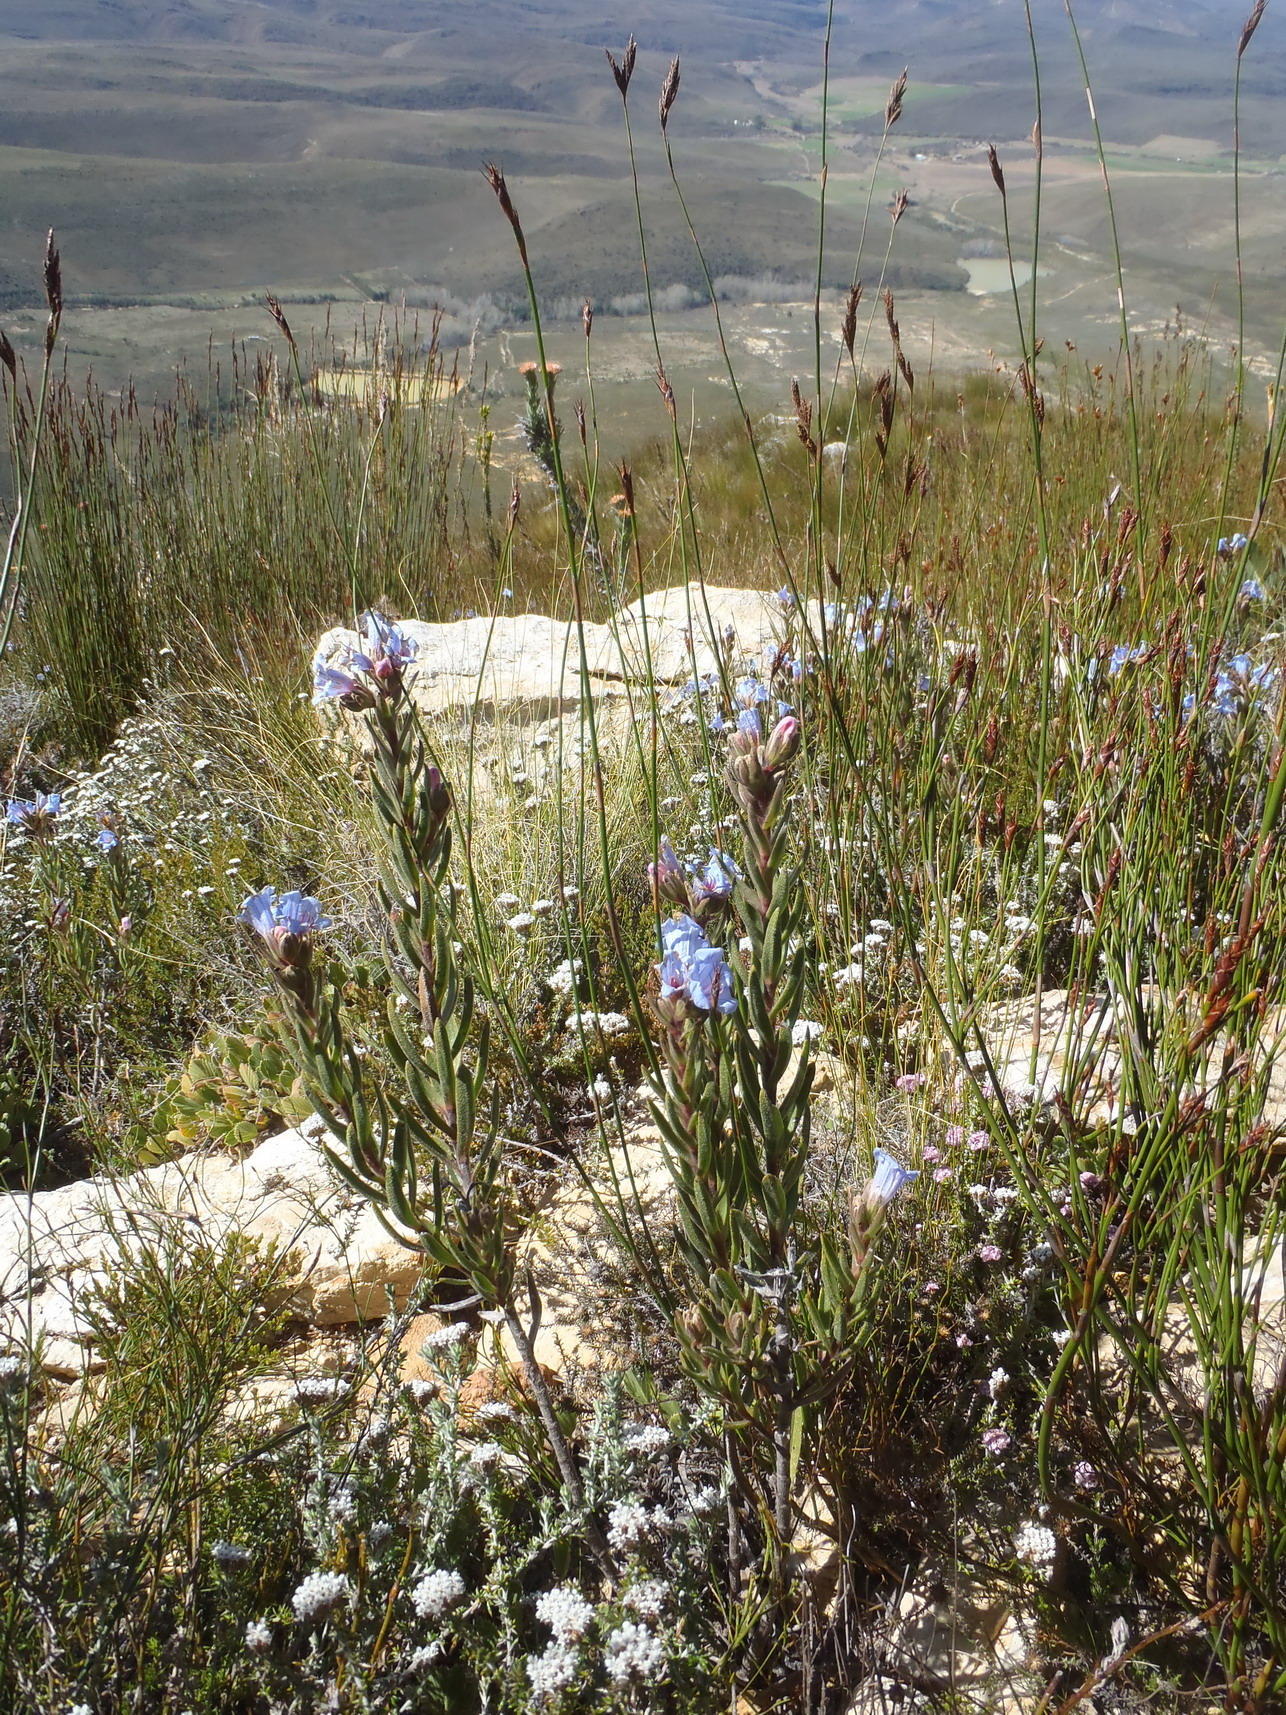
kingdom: Plantae
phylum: Tracheophyta
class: Magnoliopsida
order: Boraginales
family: Boraginaceae
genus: Lobostemon
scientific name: Lobostemon fruticosus
